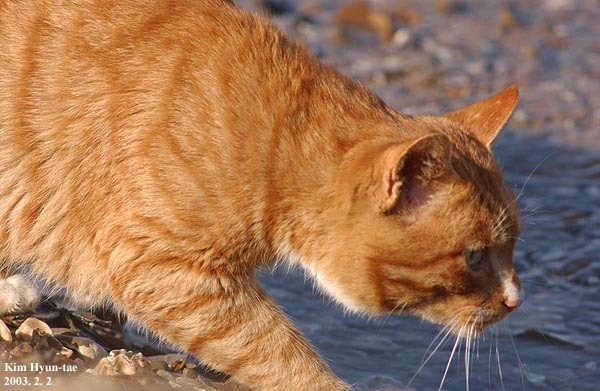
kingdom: Animalia
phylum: Chordata
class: Mammalia
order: Carnivora
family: Felidae
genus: Felis
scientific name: Felis catus
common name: Domestic cat
